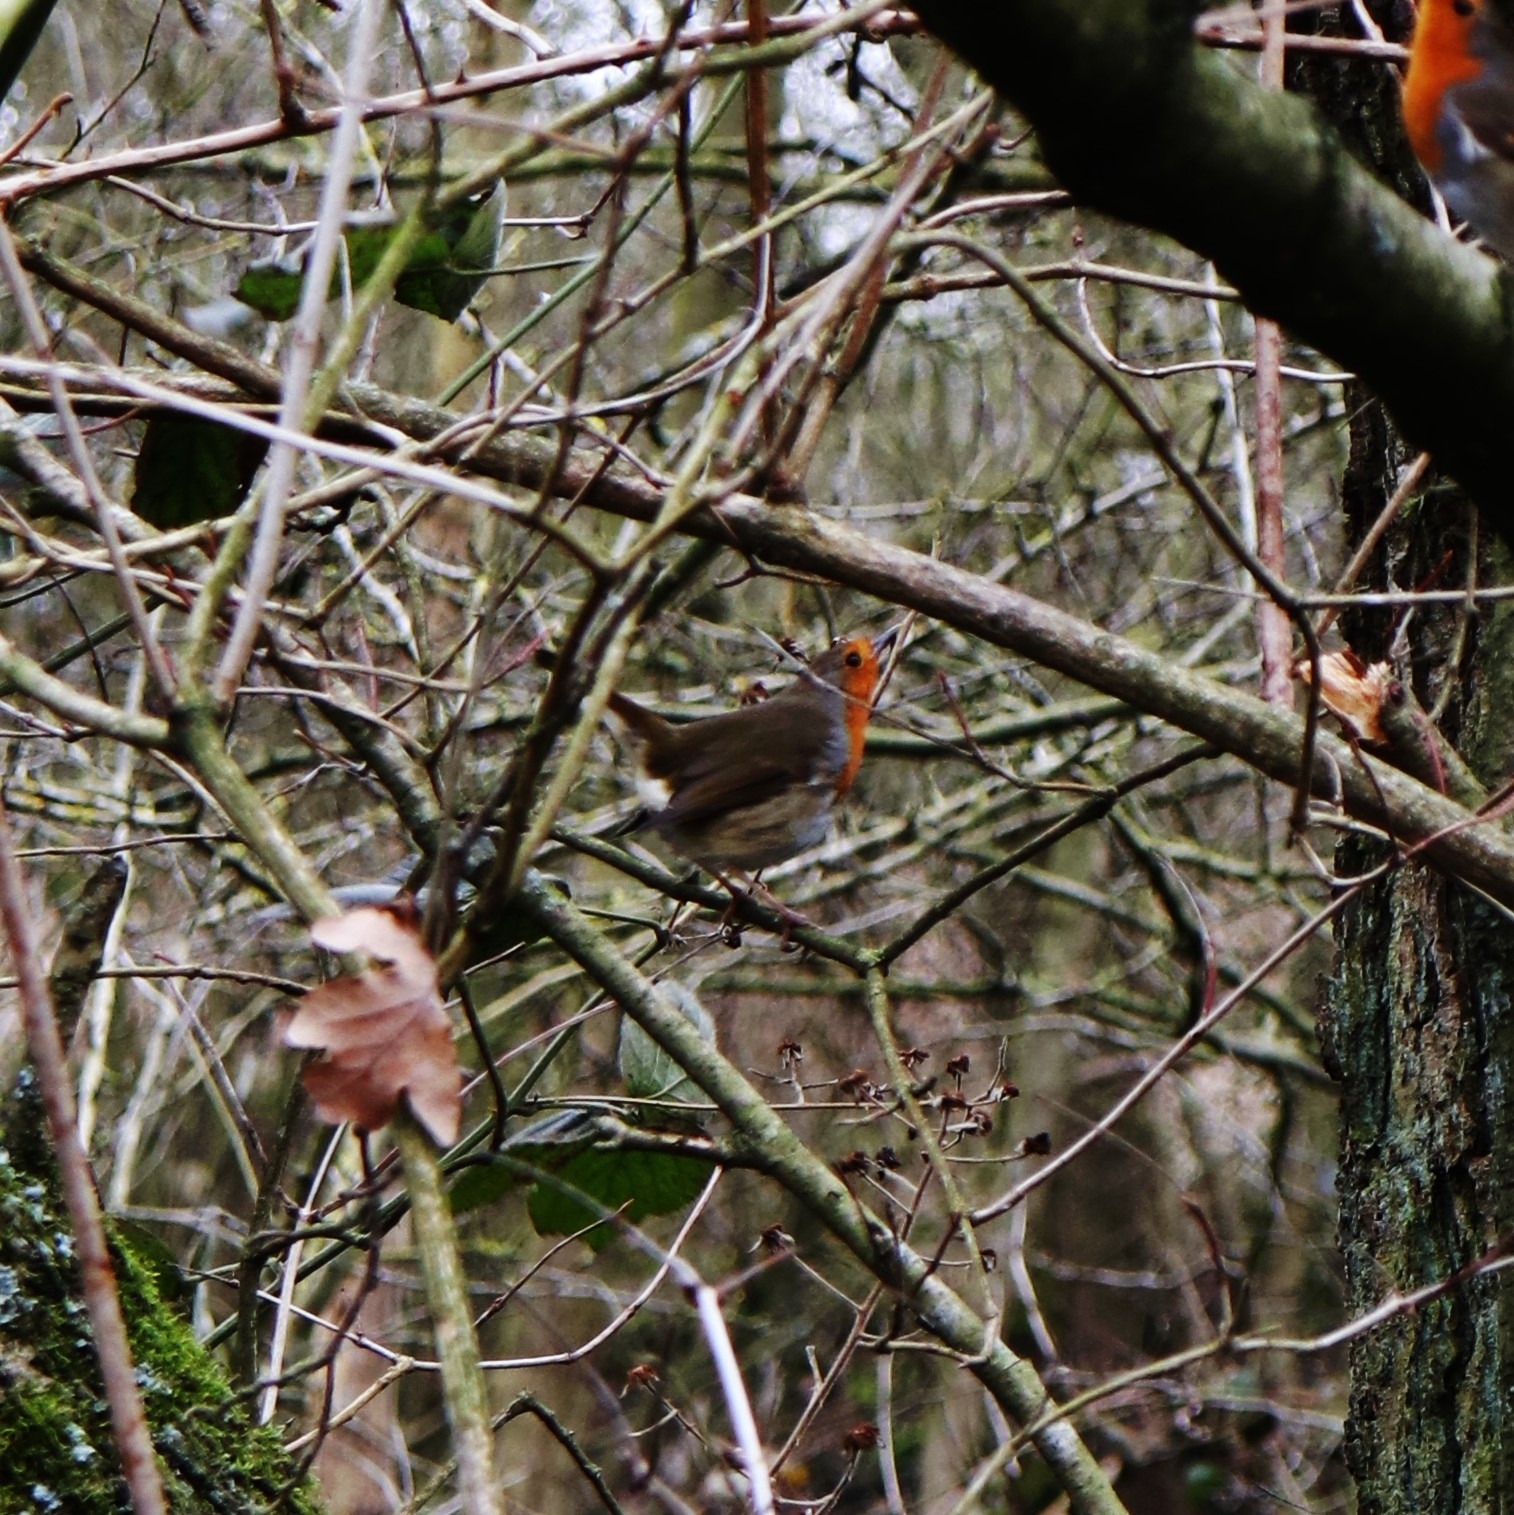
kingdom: Animalia
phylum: Chordata
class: Aves
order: Passeriformes
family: Muscicapidae
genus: Erithacus
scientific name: Erithacus rubecula
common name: European robin
